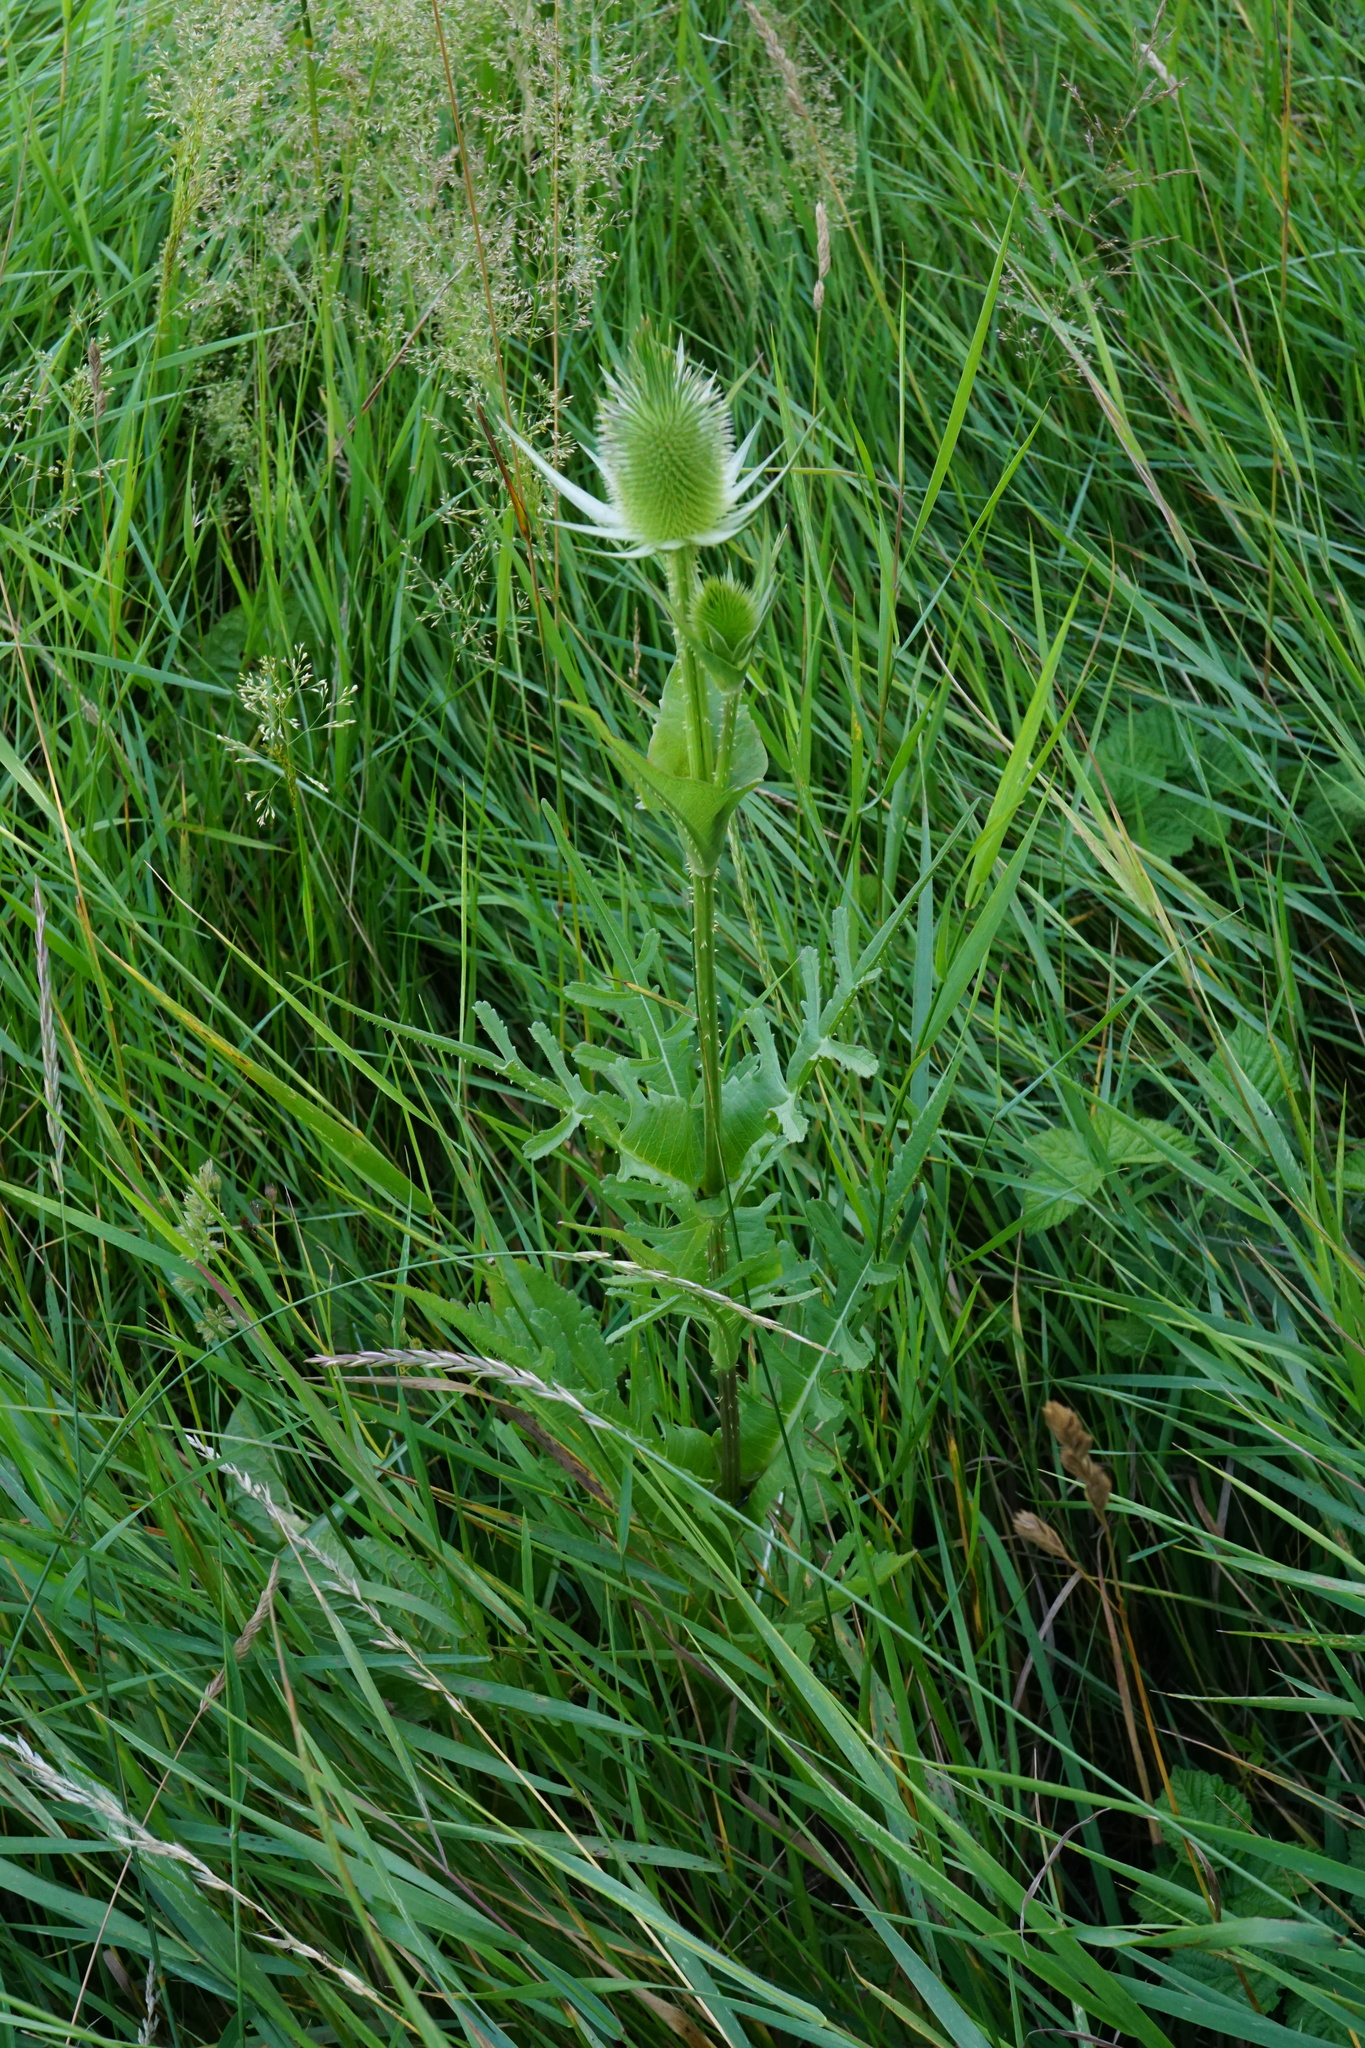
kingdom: Plantae
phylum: Tracheophyta
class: Magnoliopsida
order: Dipsacales
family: Caprifoliaceae
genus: Dipsacus
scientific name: Dipsacus laciniatus
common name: Cut-leaved teasel
